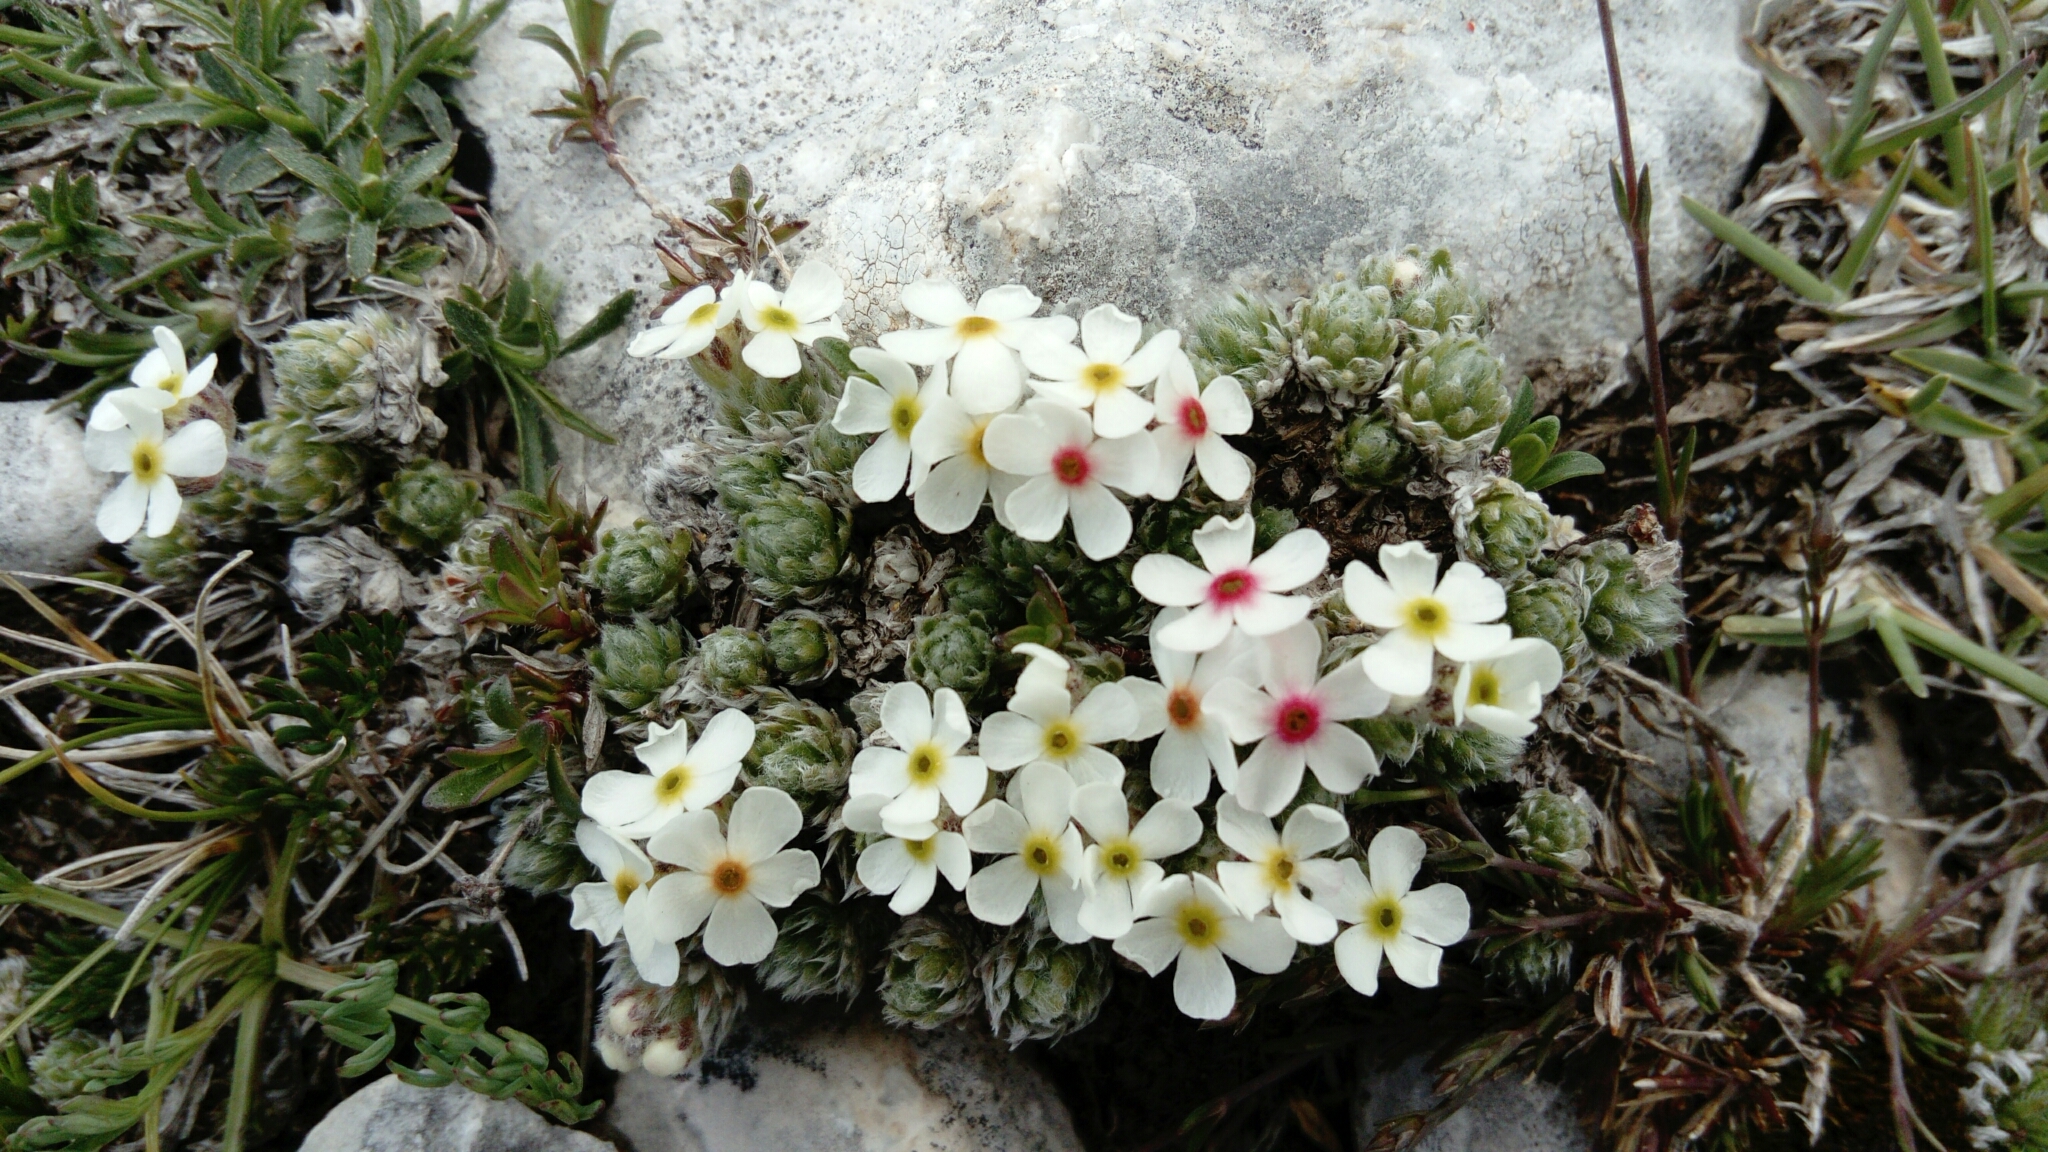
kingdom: Plantae
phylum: Tracheophyta
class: Magnoliopsida
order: Ericales
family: Primulaceae
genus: Androsace
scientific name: Androsace villosa
